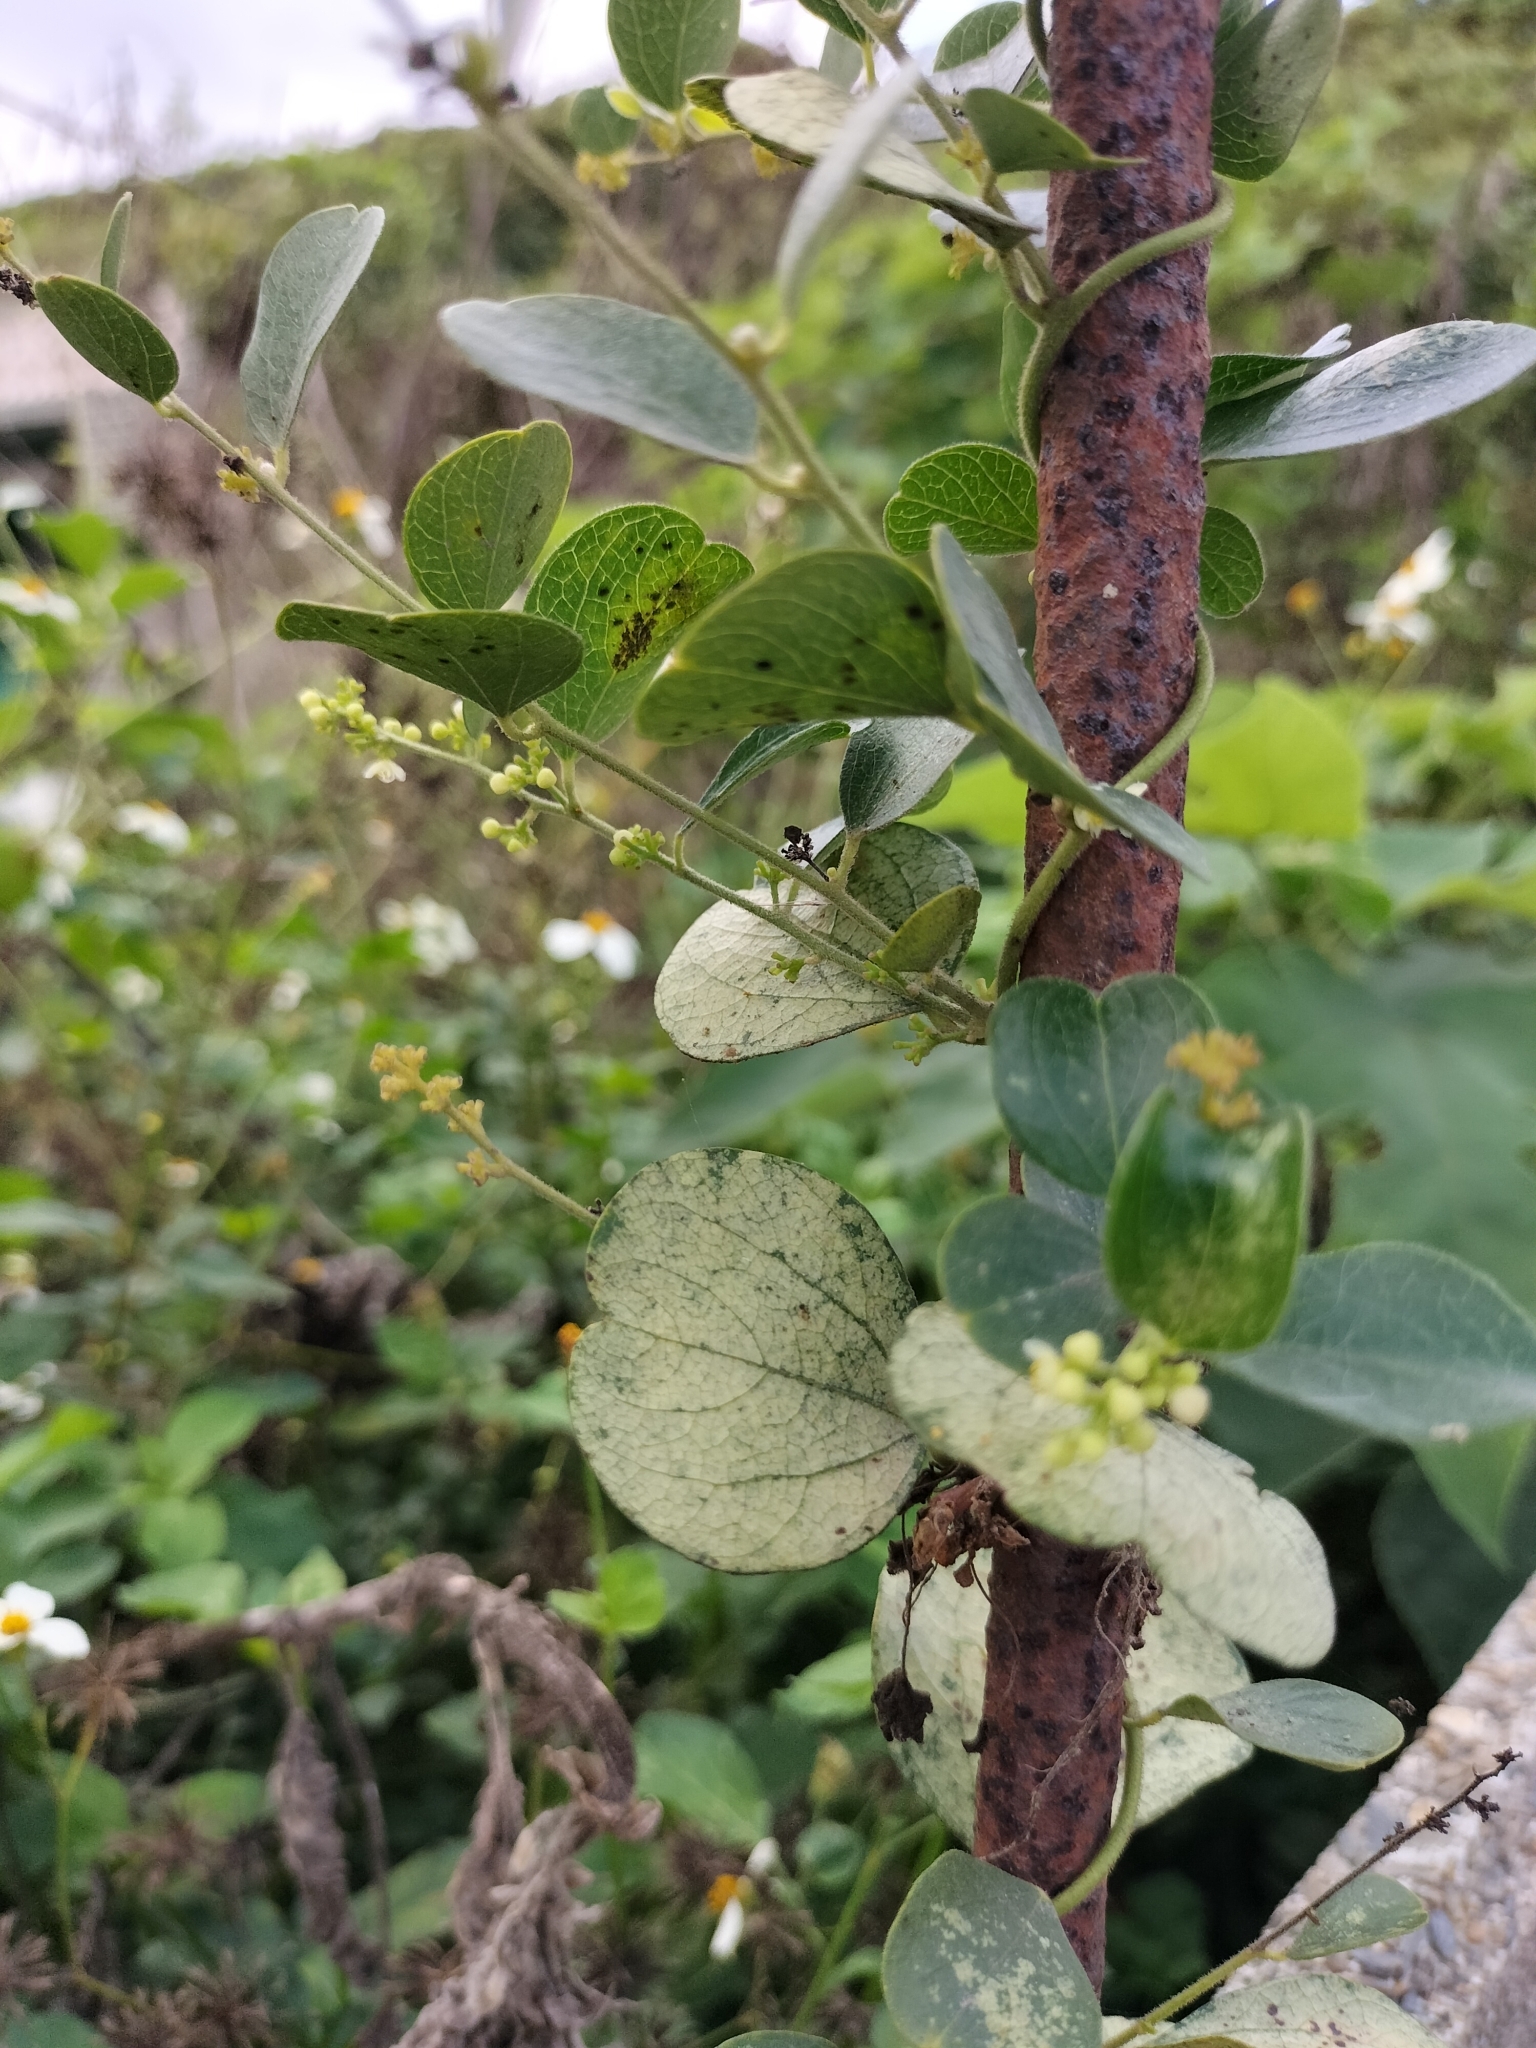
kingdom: Plantae
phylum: Tracheophyta
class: Magnoliopsida
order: Ranunculales
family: Menispermaceae
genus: Cocculus
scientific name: Cocculus orbiculatus
